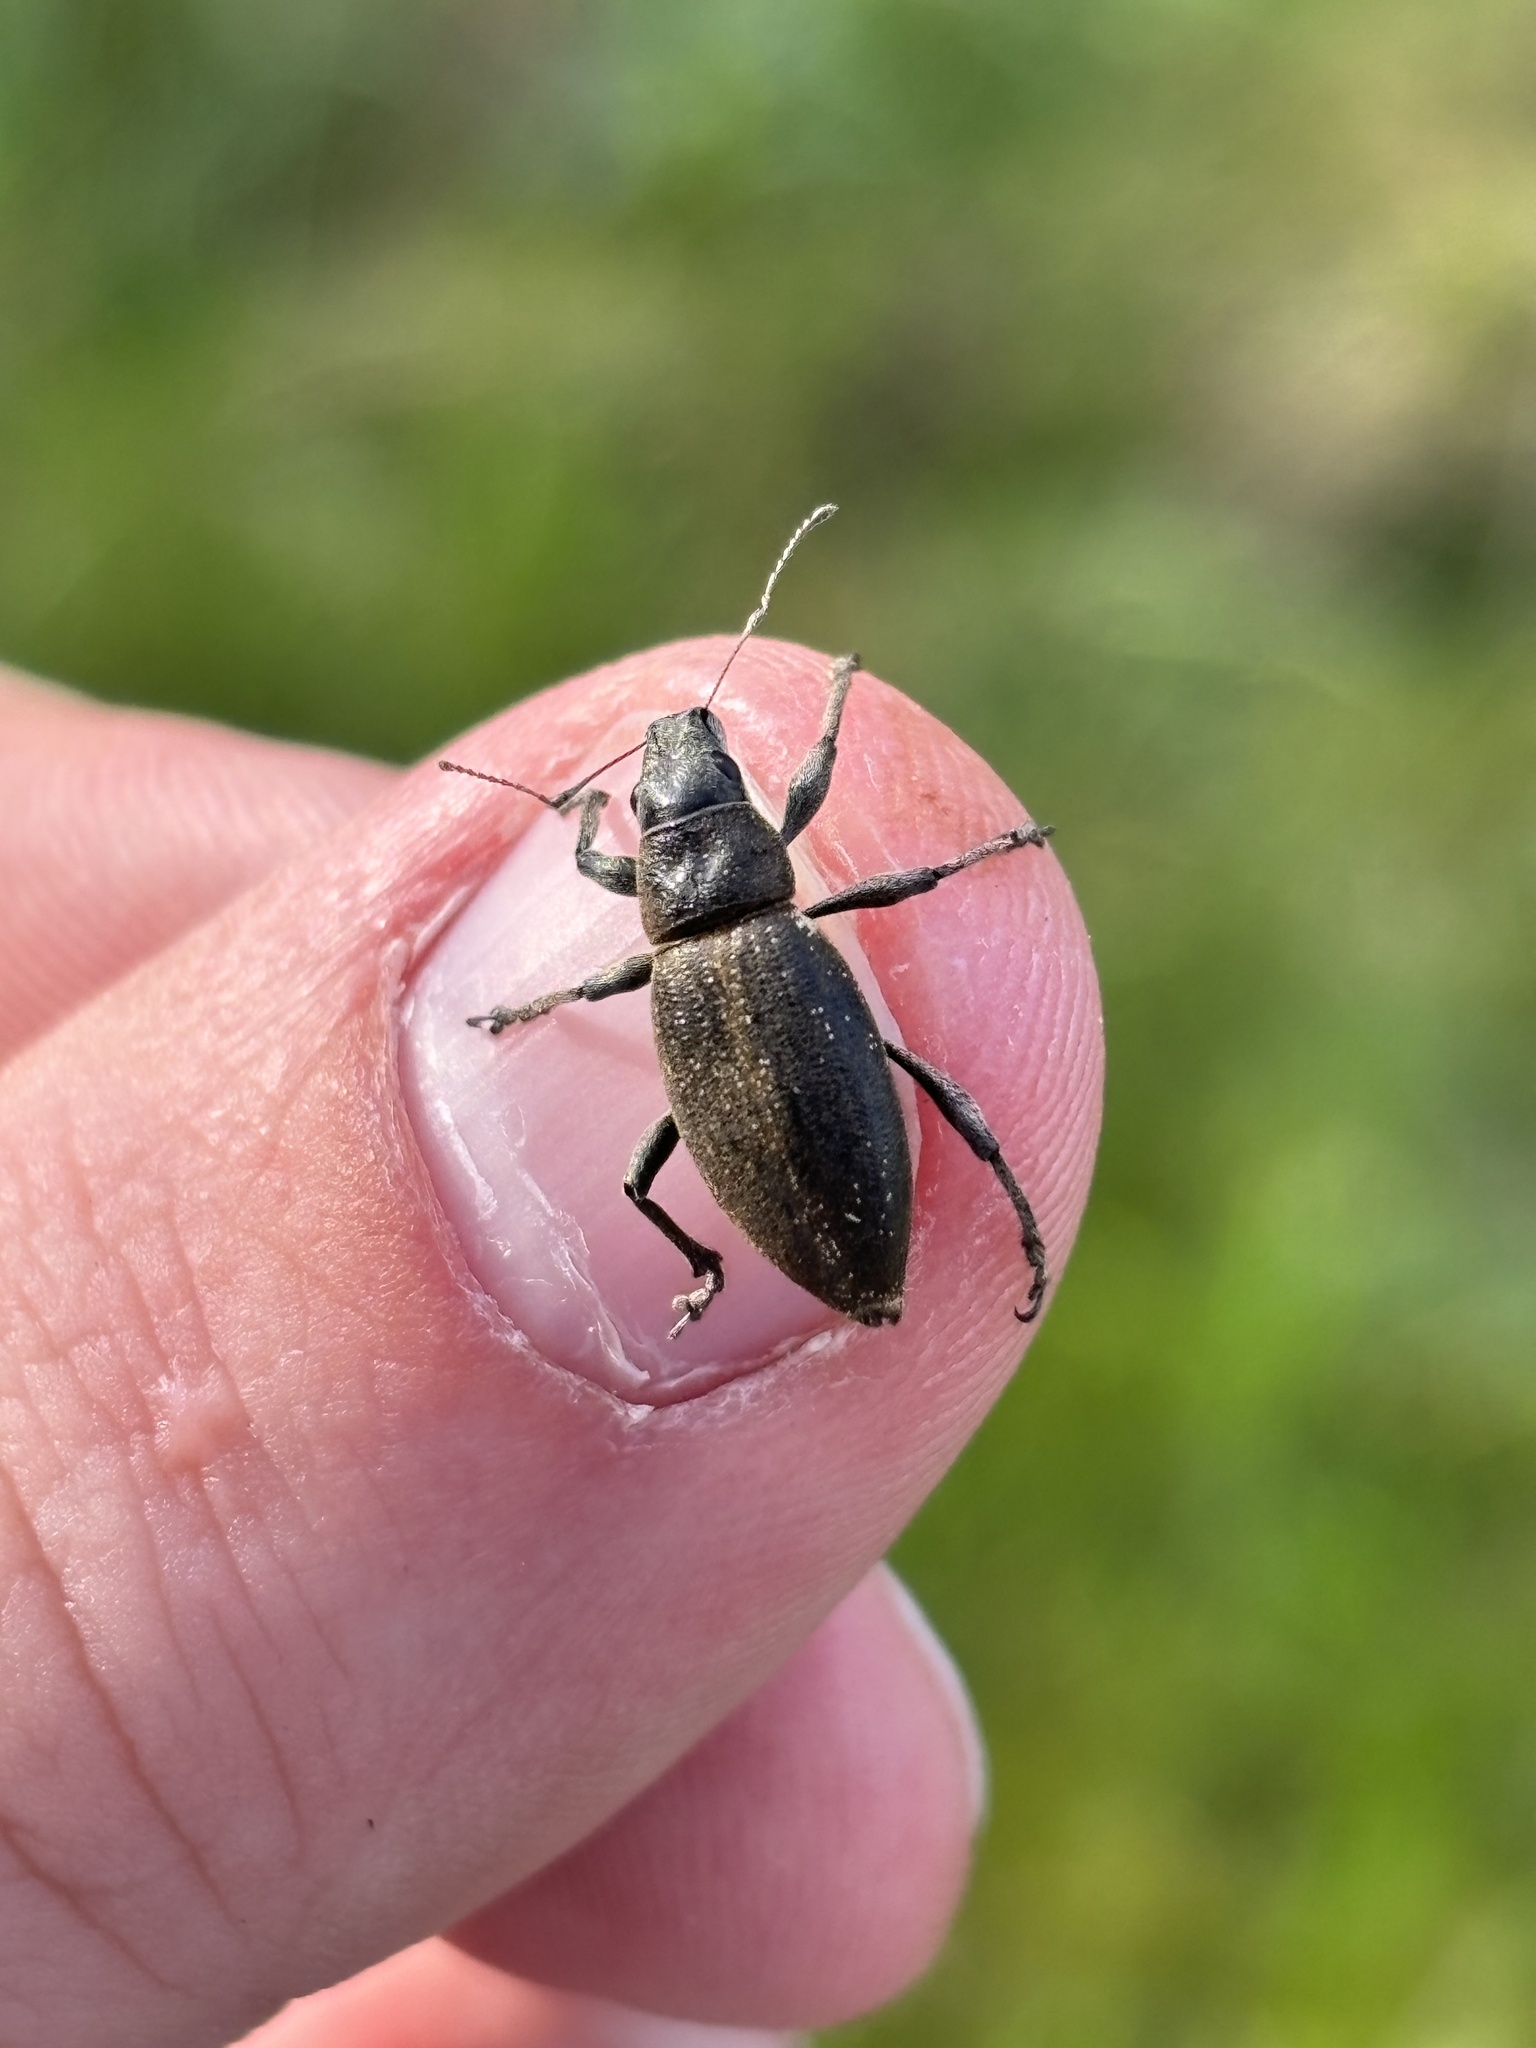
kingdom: Animalia
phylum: Arthropoda
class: Insecta
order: Coleoptera
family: Curculionidae
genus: Brachyderes
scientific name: Brachyderes lusitanicus
